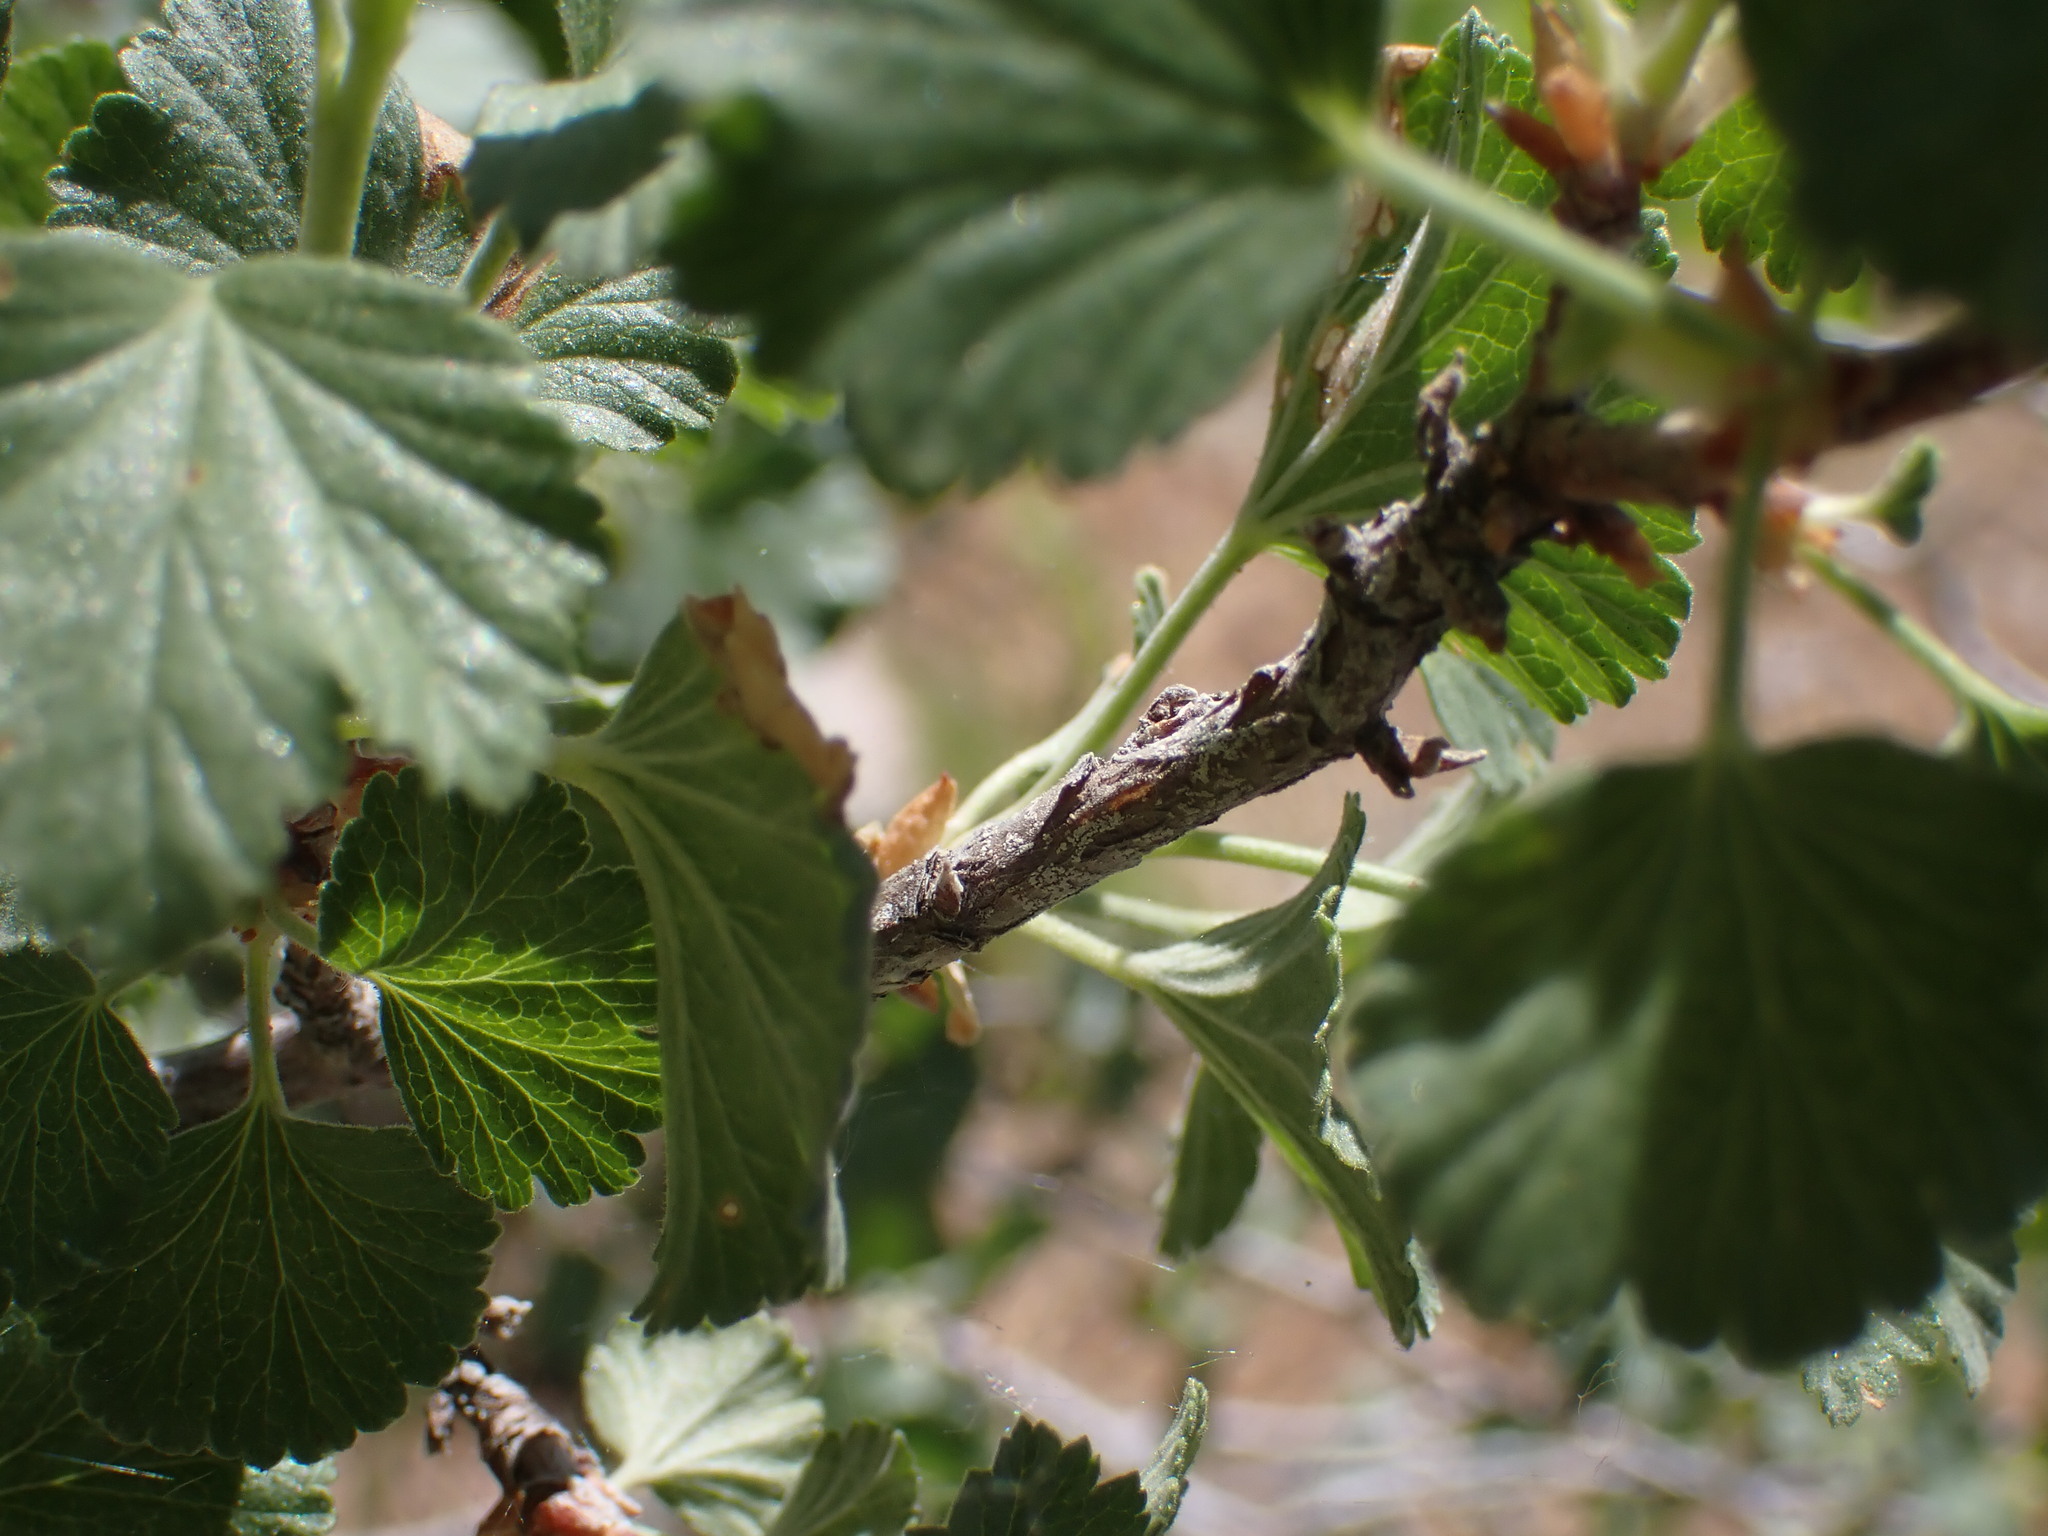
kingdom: Plantae
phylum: Tracheophyta
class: Magnoliopsida
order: Saxifragales
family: Grossulariaceae
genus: Ribes
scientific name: Ribes cereum
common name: Wax currant
